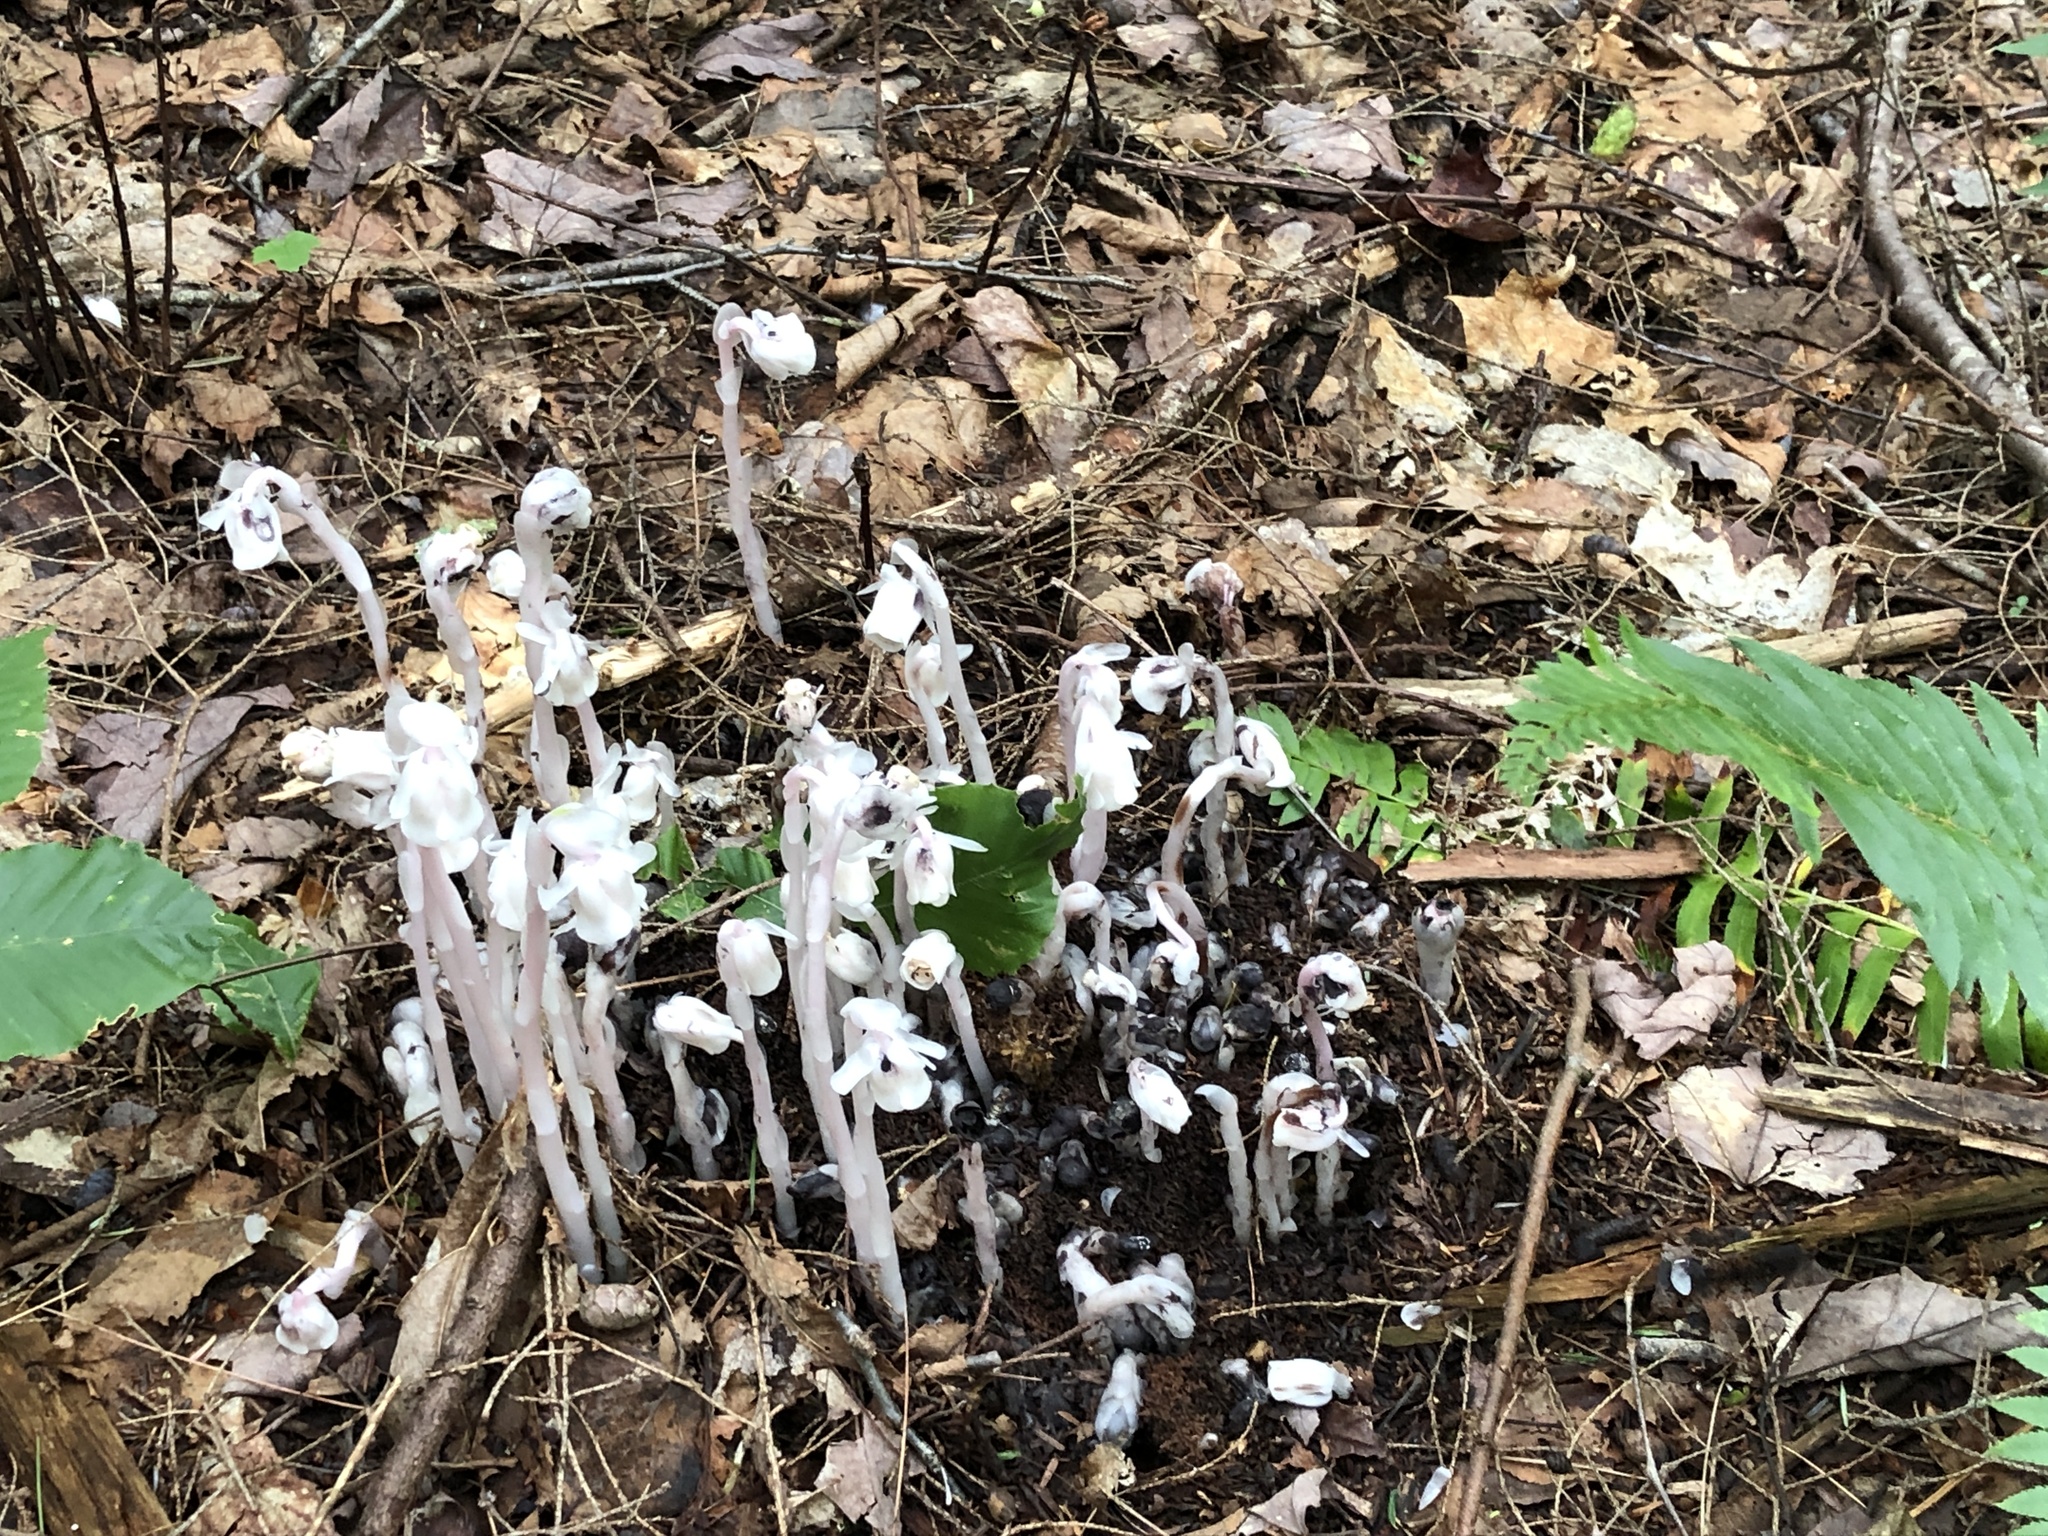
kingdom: Plantae
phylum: Tracheophyta
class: Magnoliopsida
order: Ericales
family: Ericaceae
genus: Monotropa
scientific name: Monotropa uniflora
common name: Convulsion root
